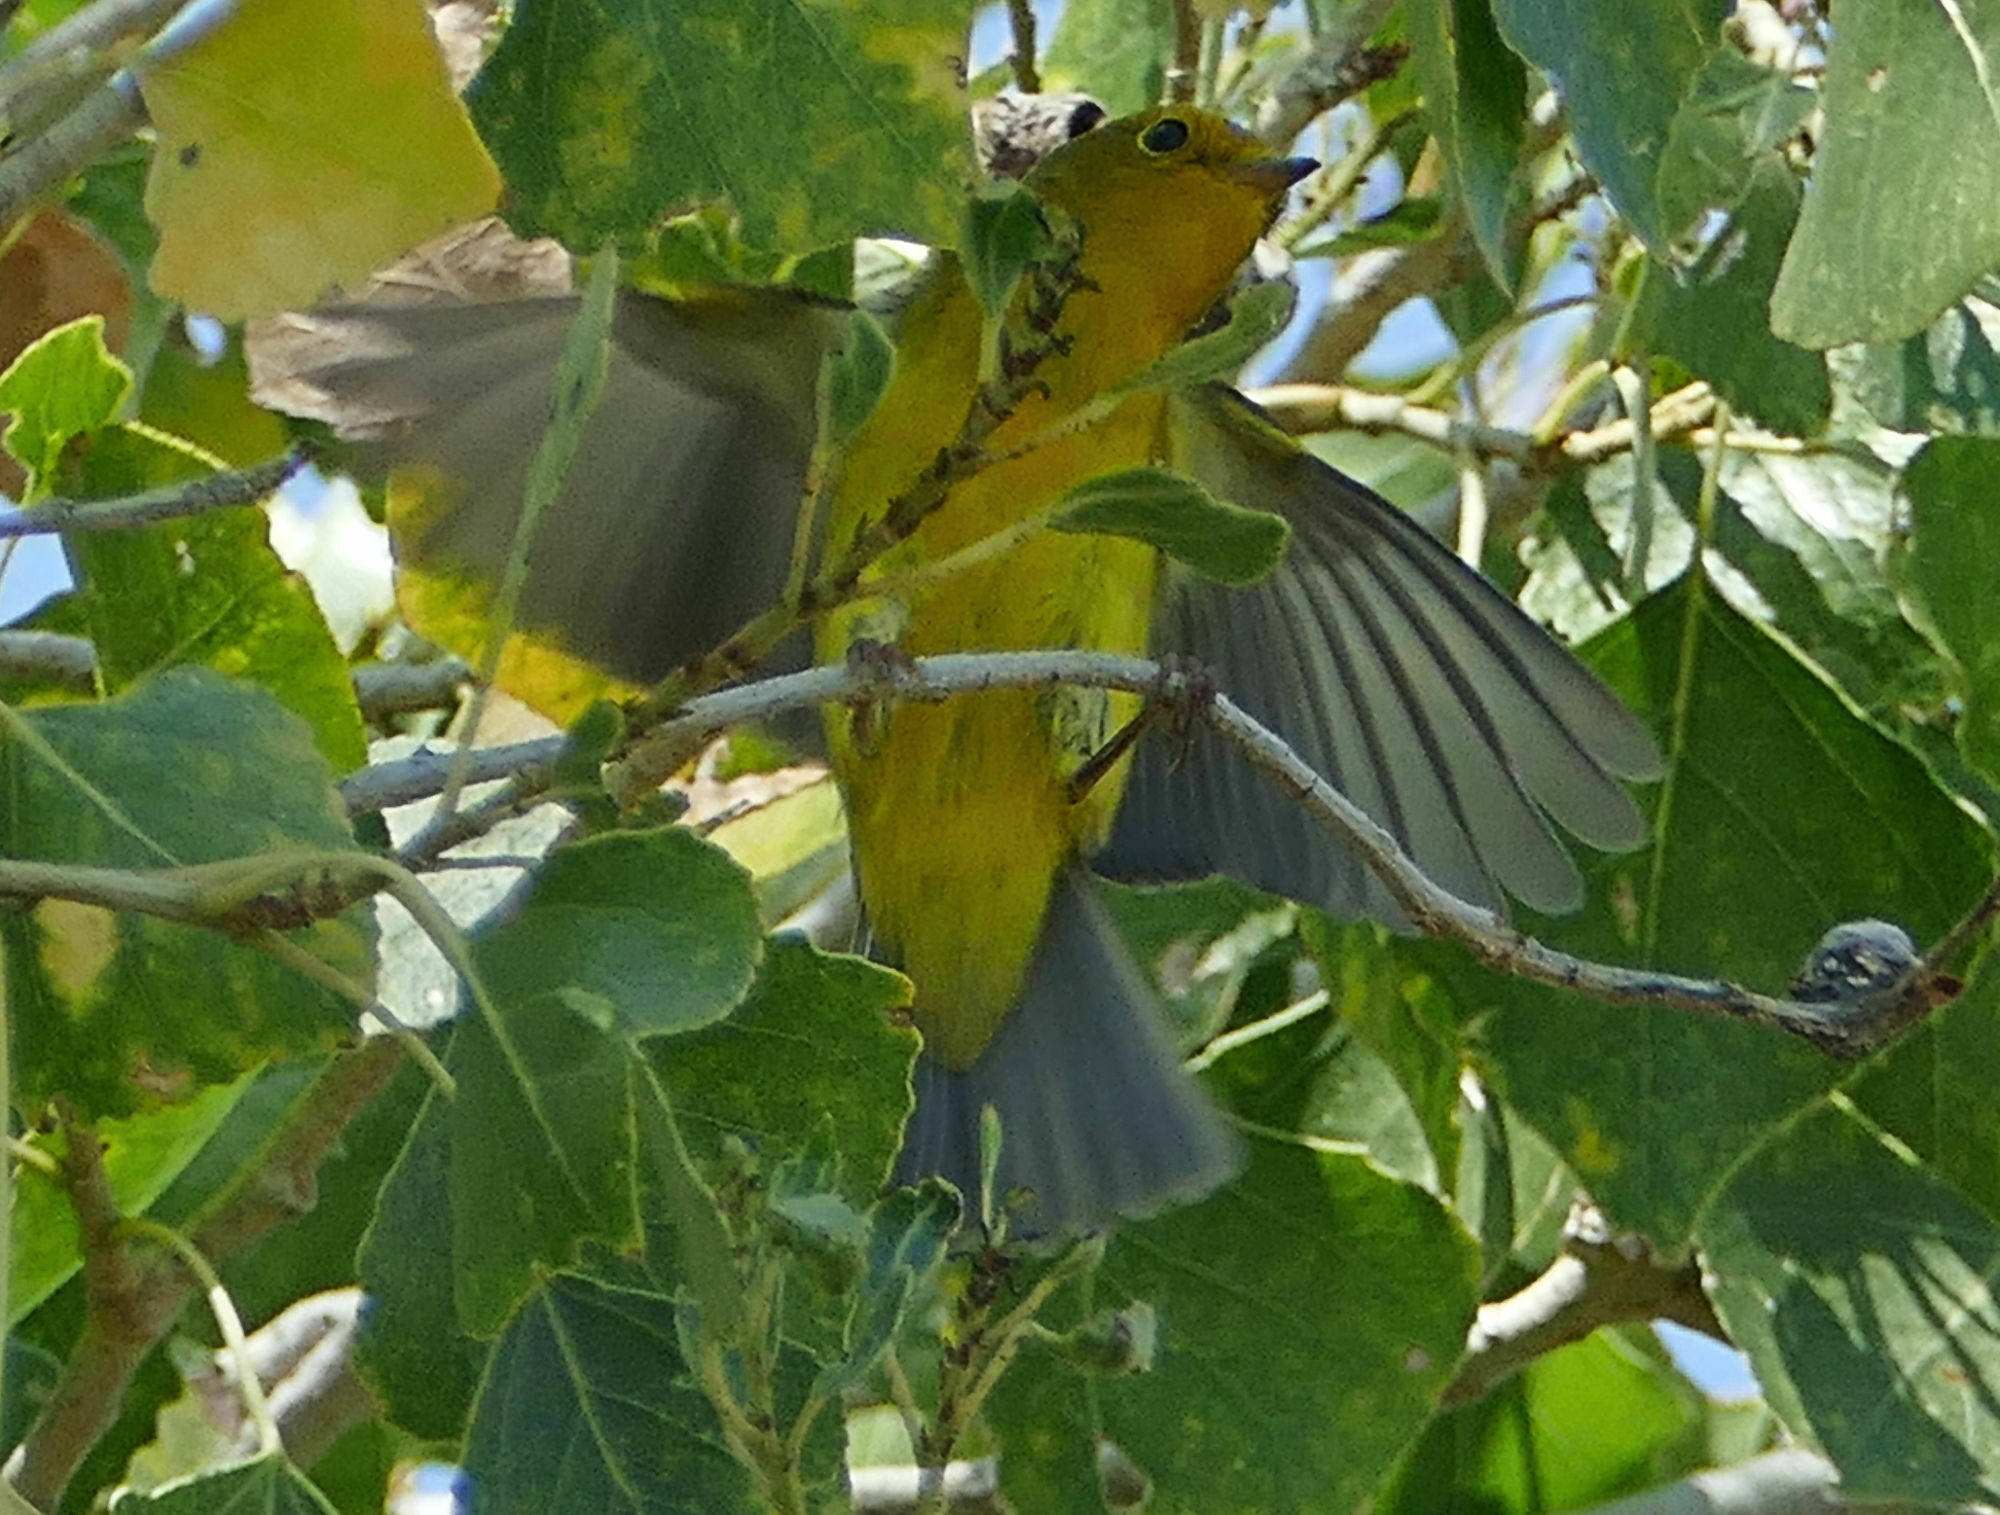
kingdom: Animalia
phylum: Chordata
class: Aves
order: Passeriformes
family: Parulidae
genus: Cardellina
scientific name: Cardellina pusilla
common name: Wilson's warbler
